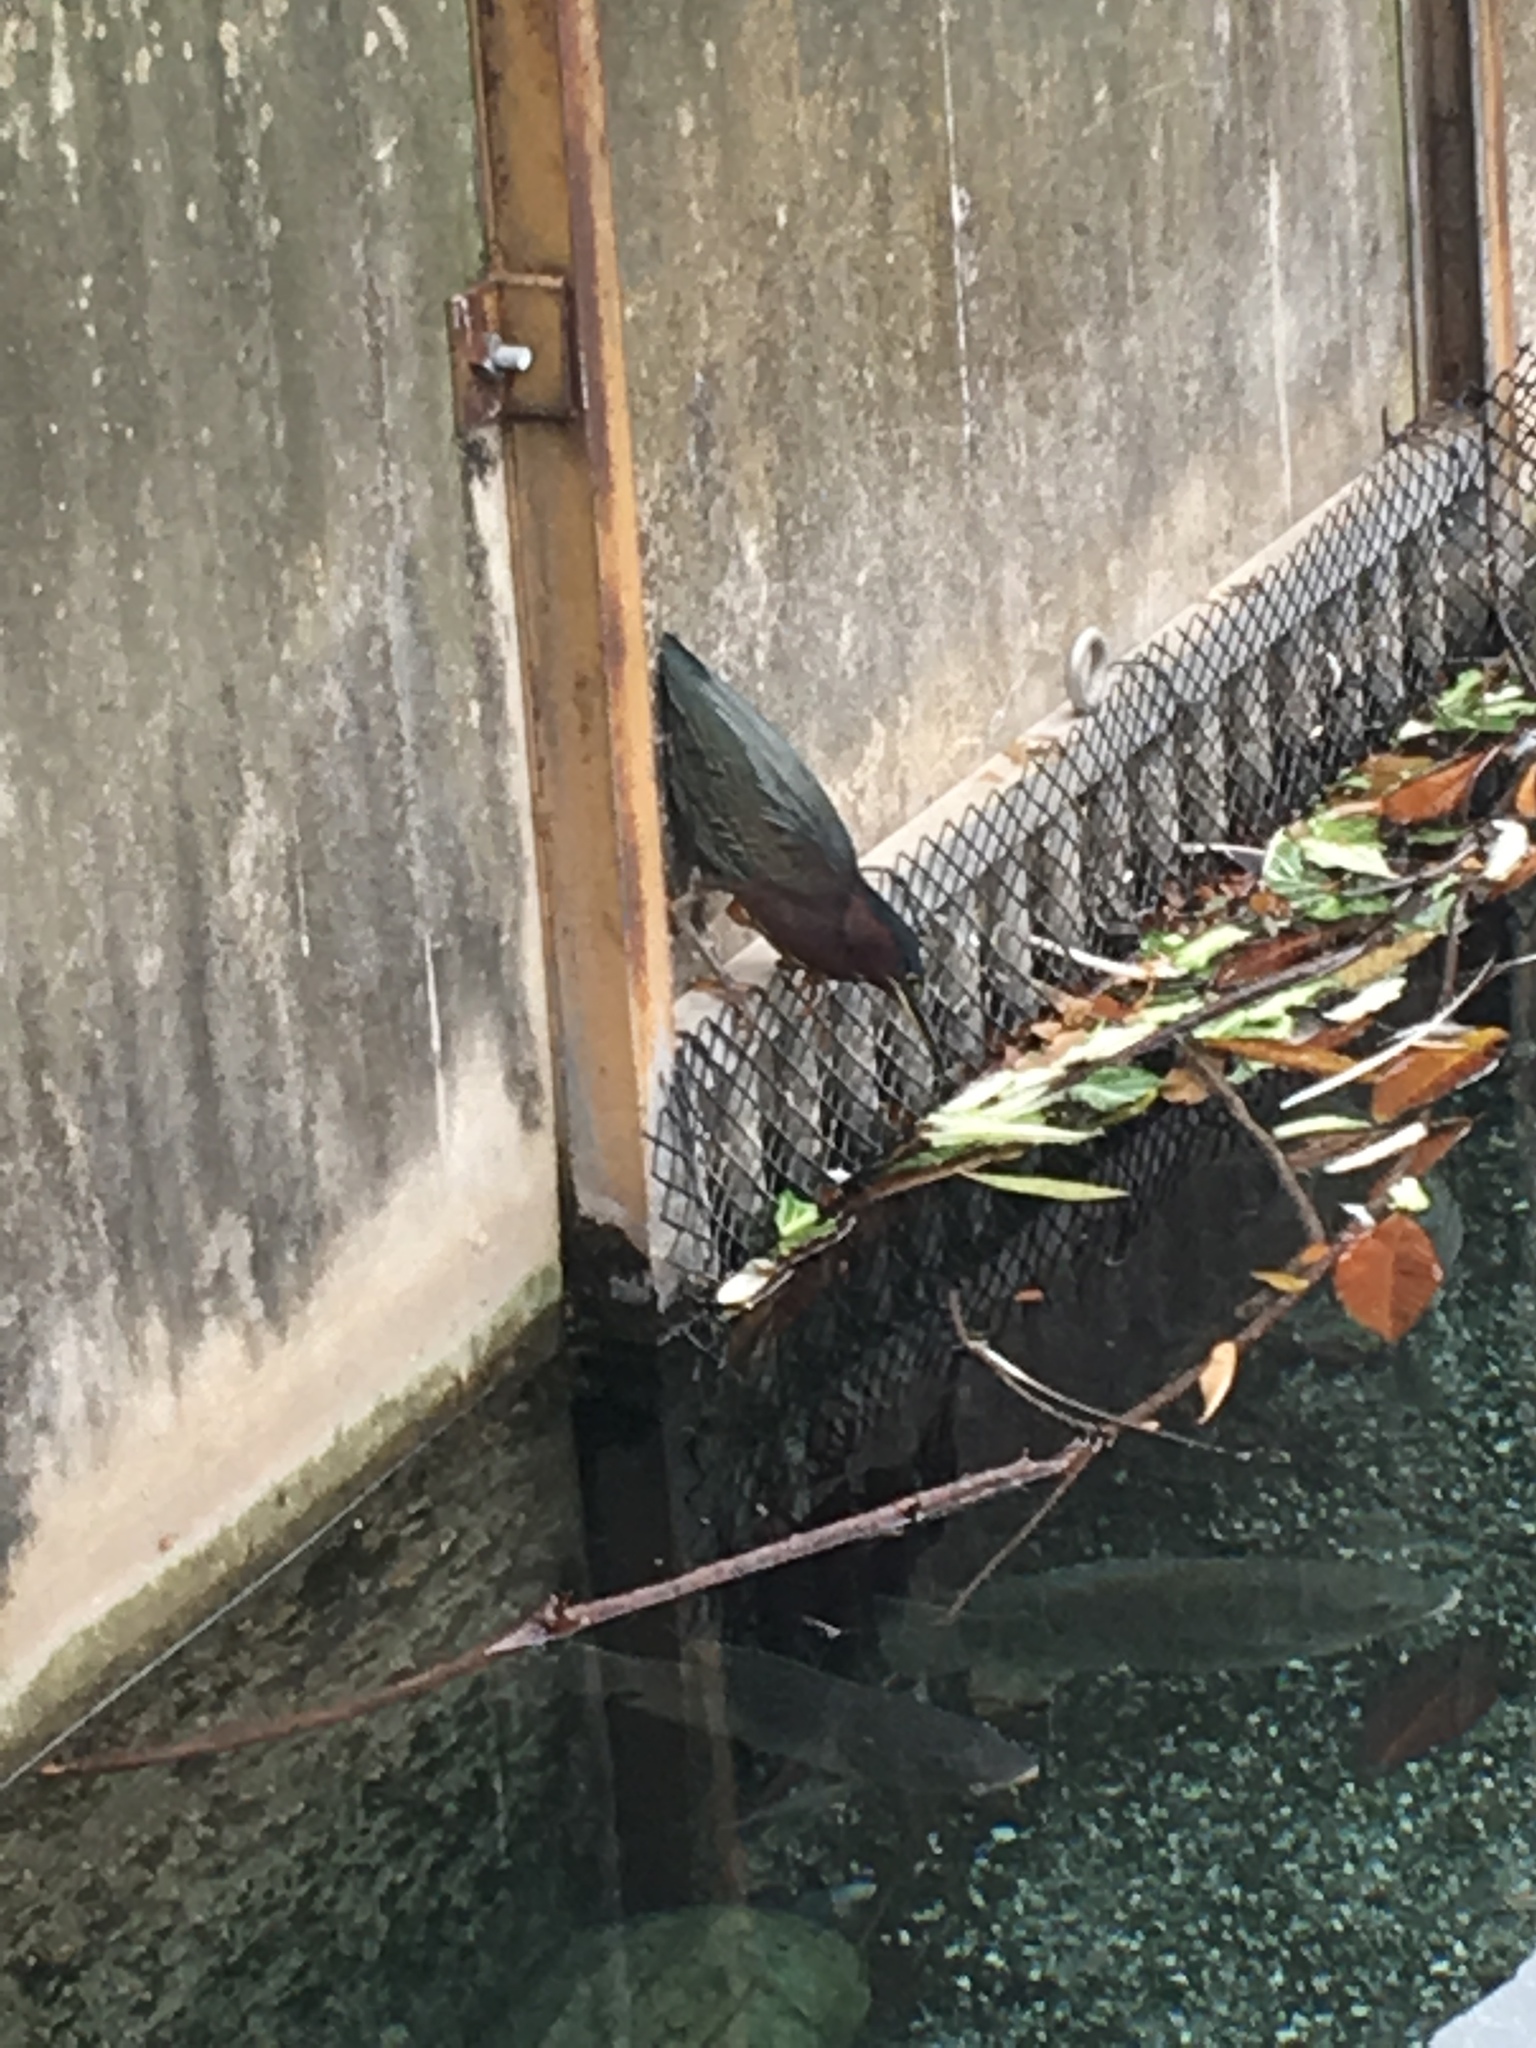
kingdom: Animalia
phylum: Chordata
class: Aves
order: Pelecaniformes
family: Ardeidae
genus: Butorides
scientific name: Butorides virescens
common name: Green heron
